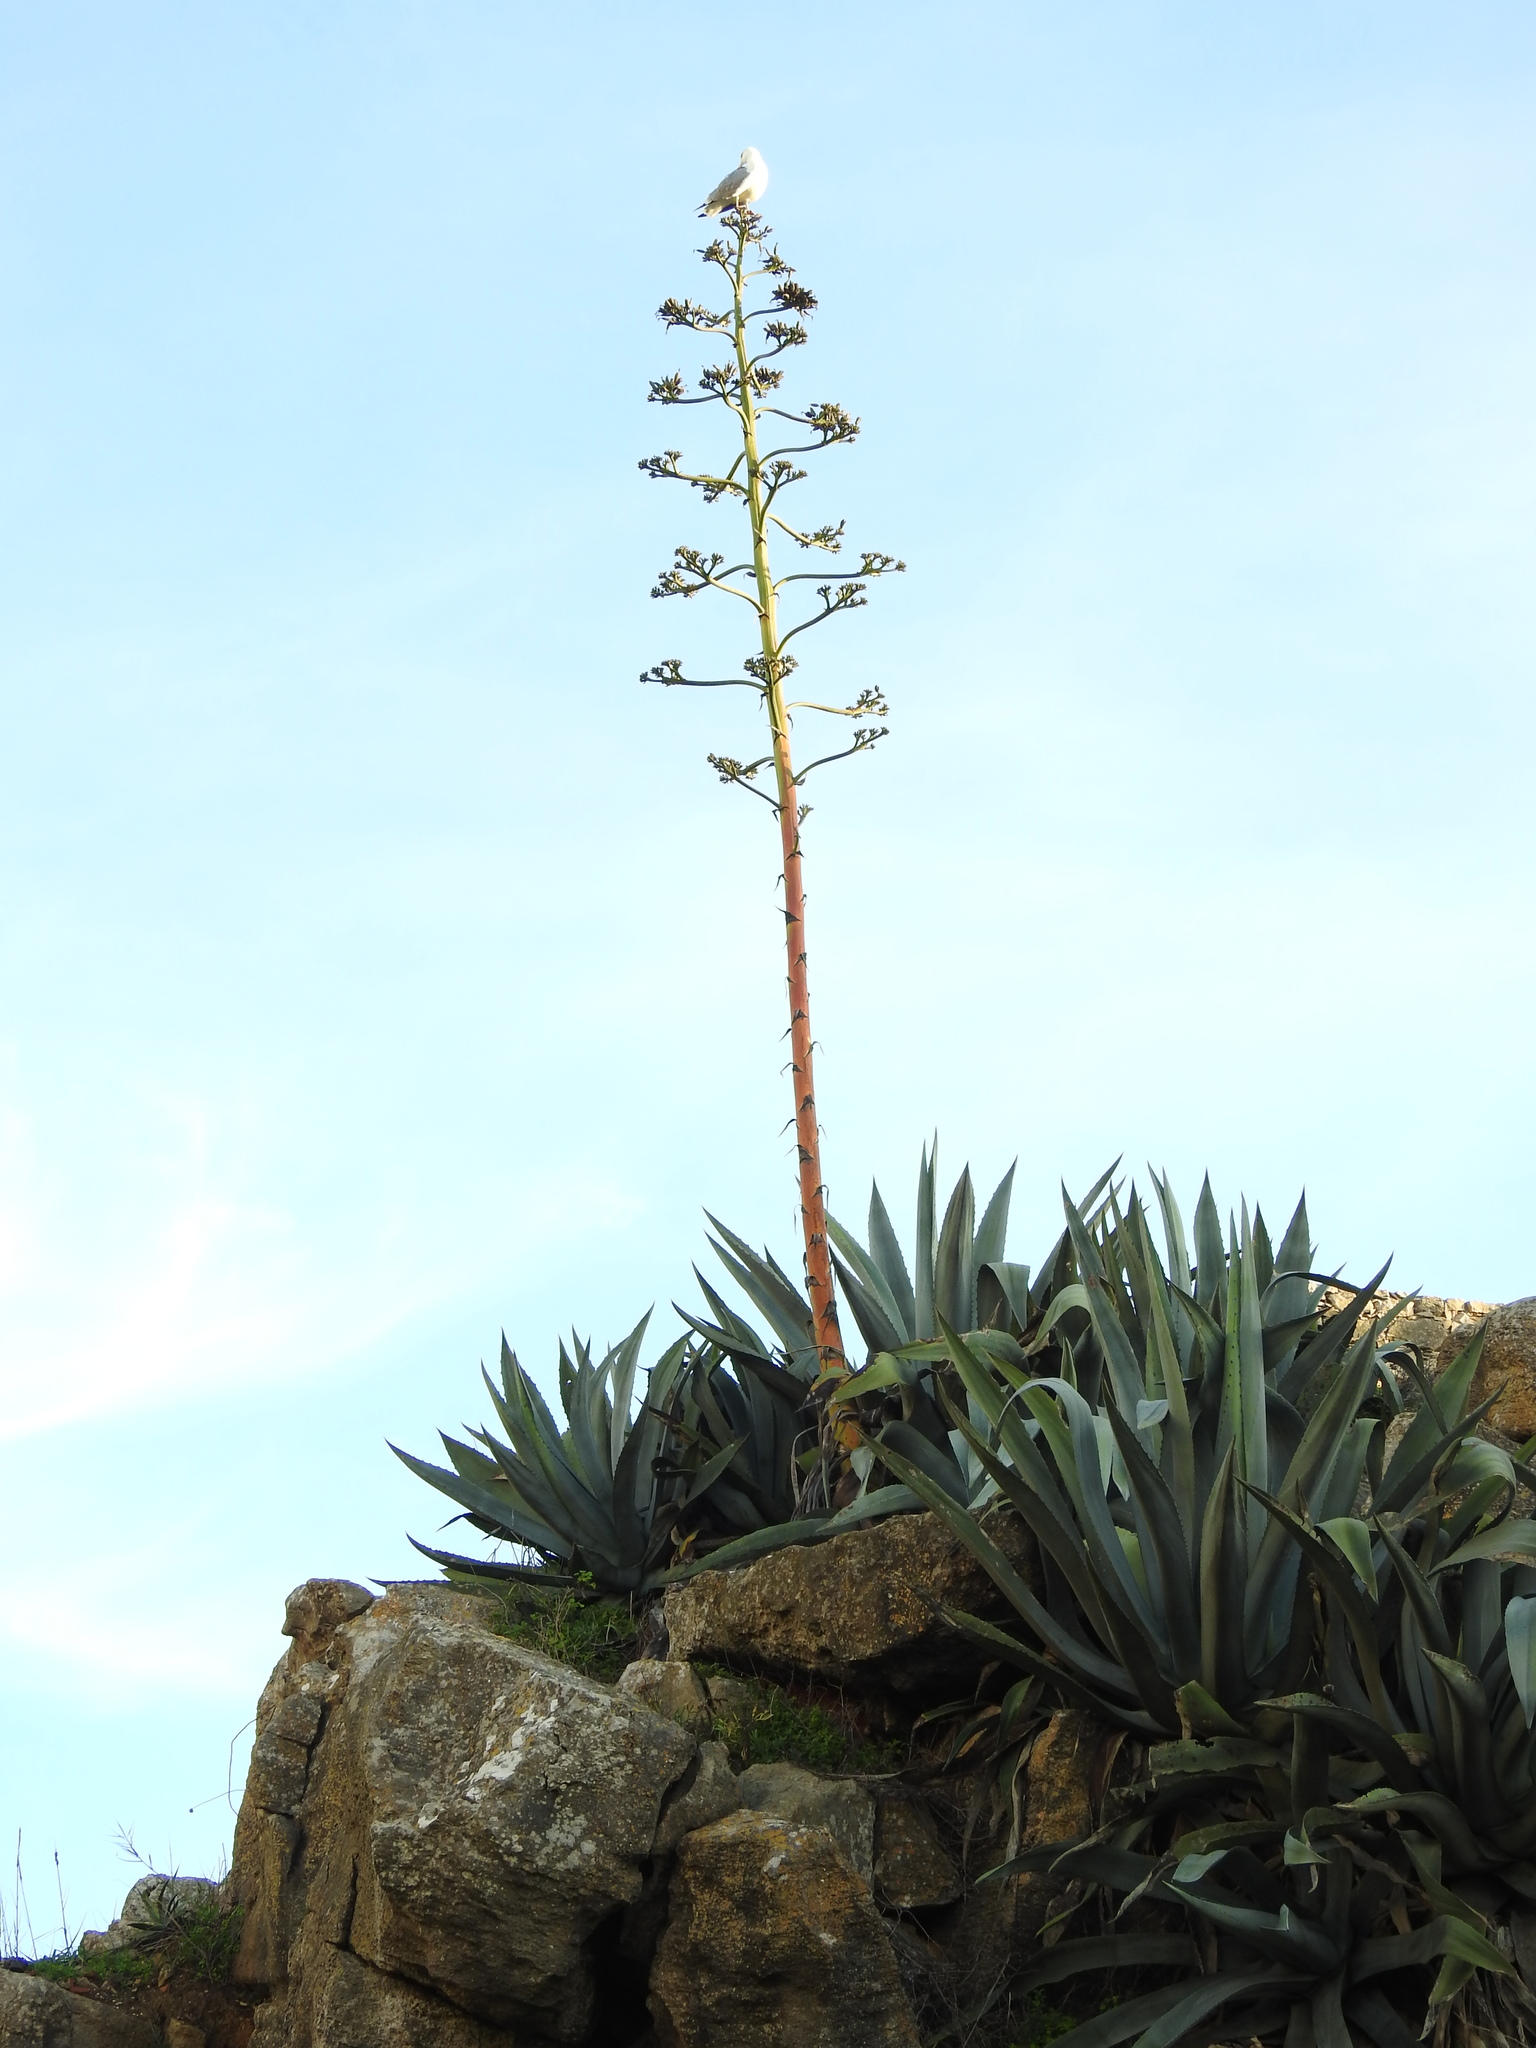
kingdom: Plantae
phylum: Tracheophyta
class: Liliopsida
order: Asparagales
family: Asparagaceae
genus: Agave
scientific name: Agave americana
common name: Centuryplant
